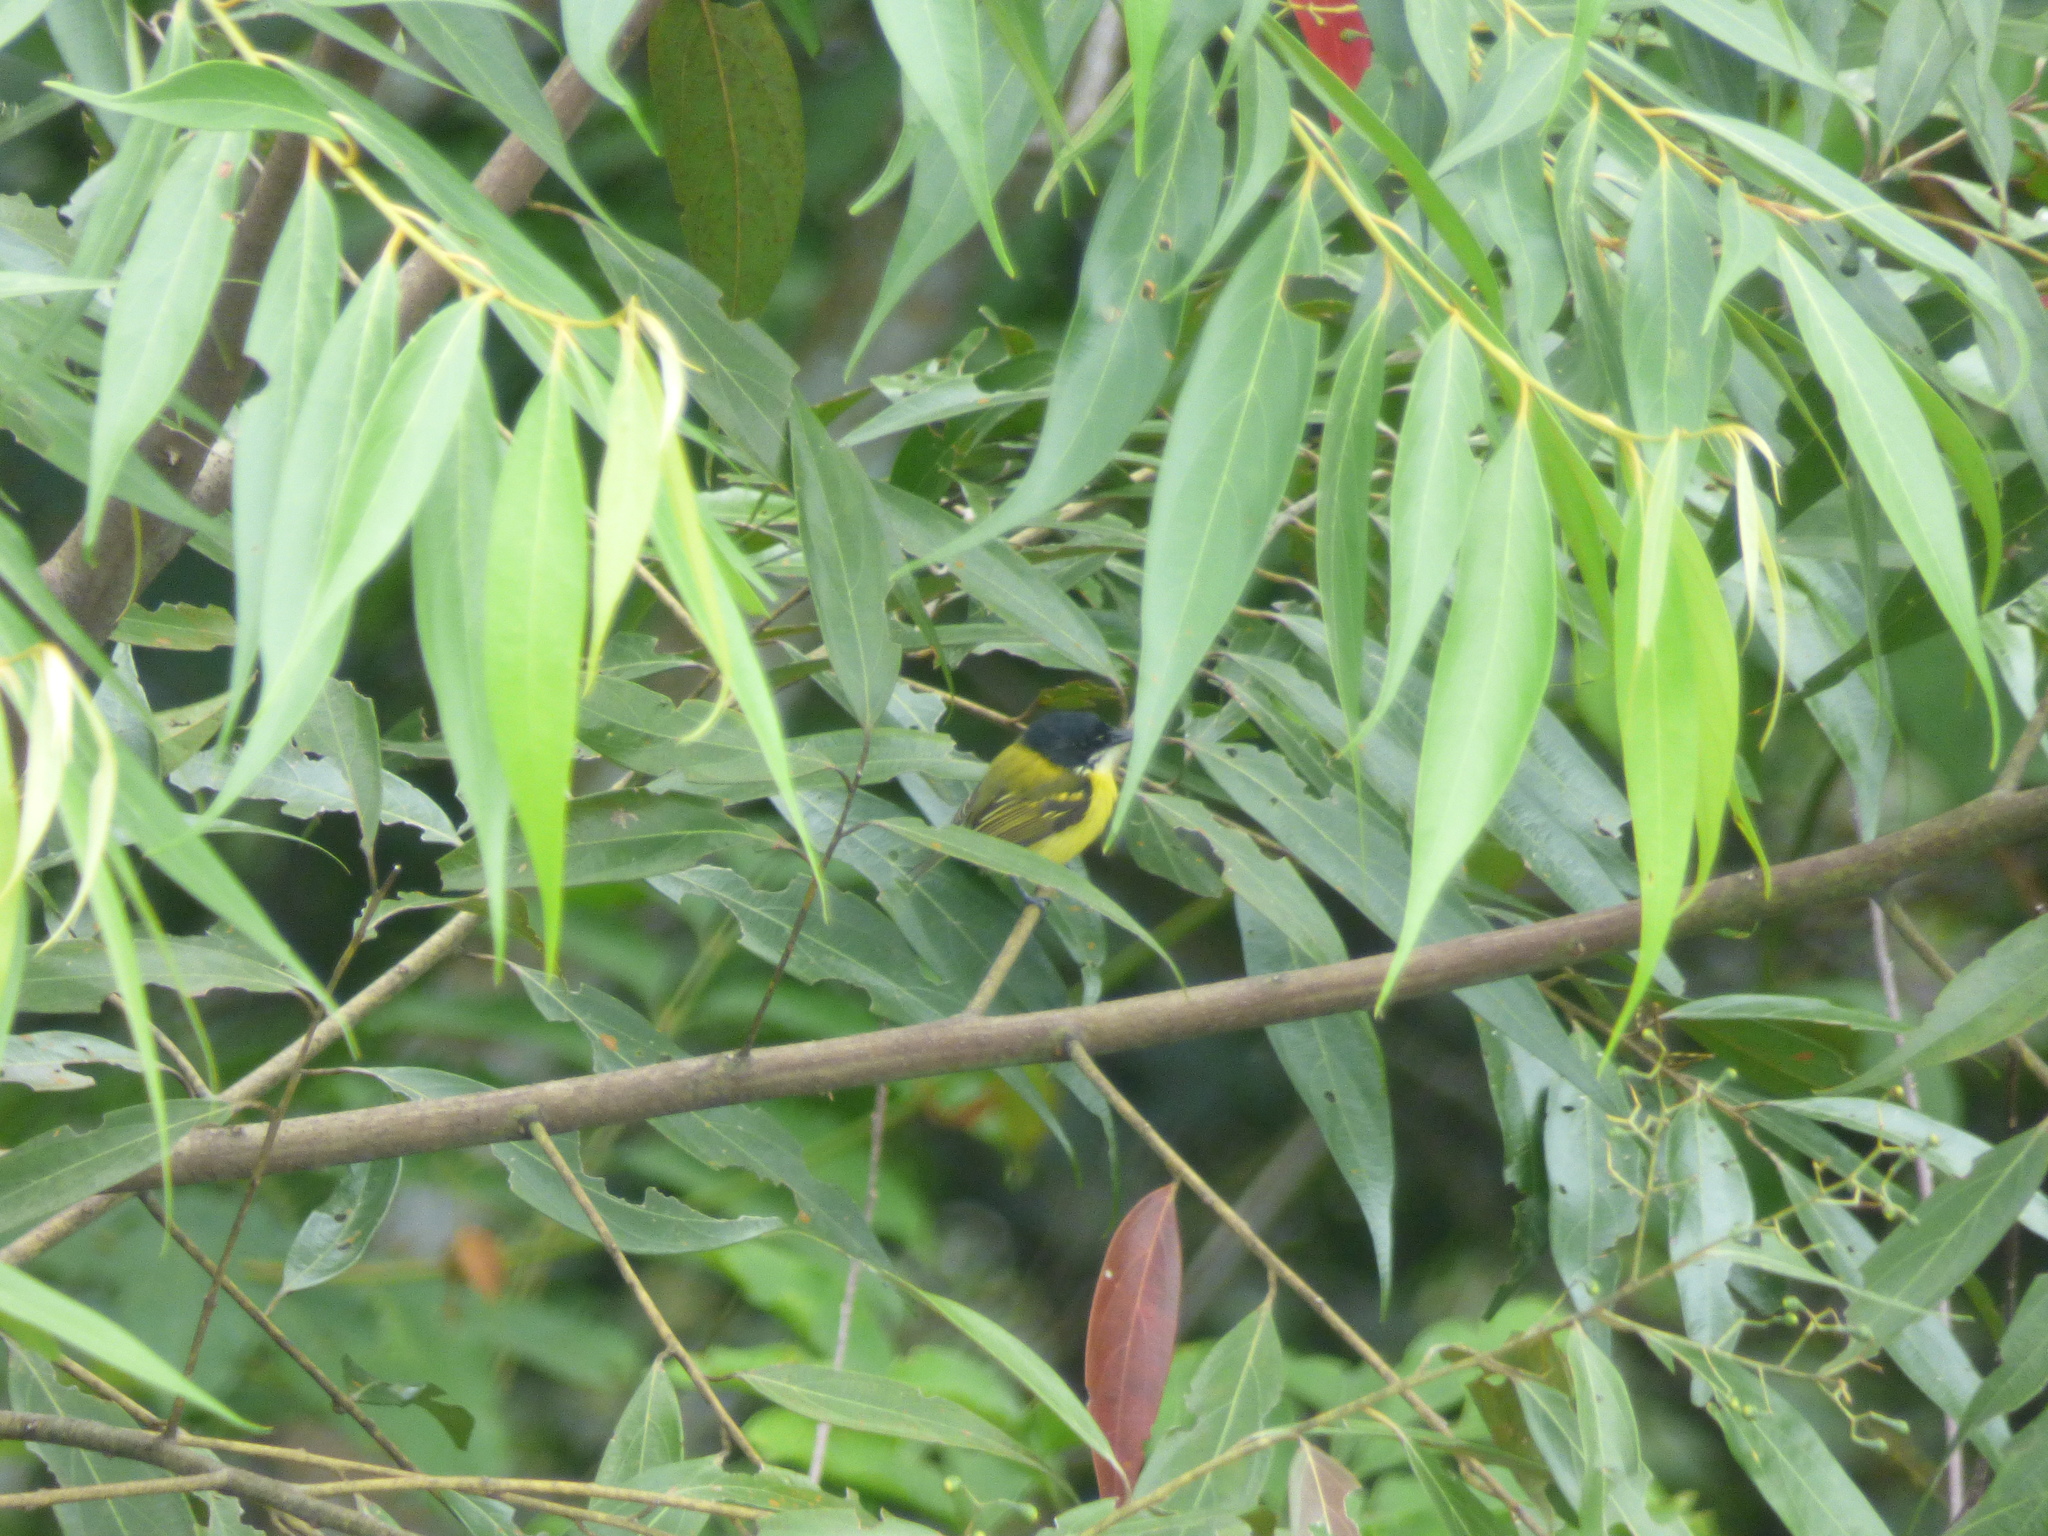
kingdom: Animalia
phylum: Chordata
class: Aves
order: Passeriformes
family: Tyrannidae
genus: Todirostrum
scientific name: Todirostrum nigriceps
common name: Black-headed tody-flycatcher
